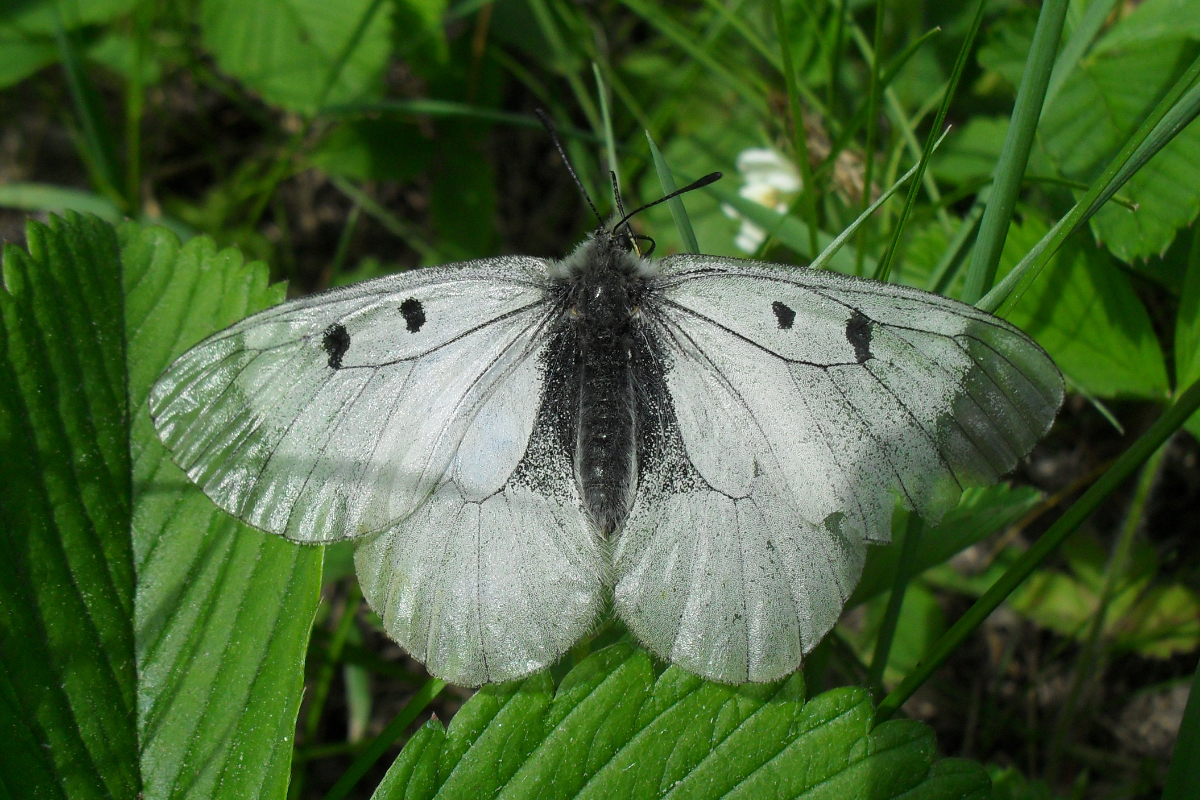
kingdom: Animalia
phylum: Arthropoda
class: Insecta
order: Lepidoptera
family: Papilionidae
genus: Parnassius
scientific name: Parnassius mnemosyne
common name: Clouded apollo
